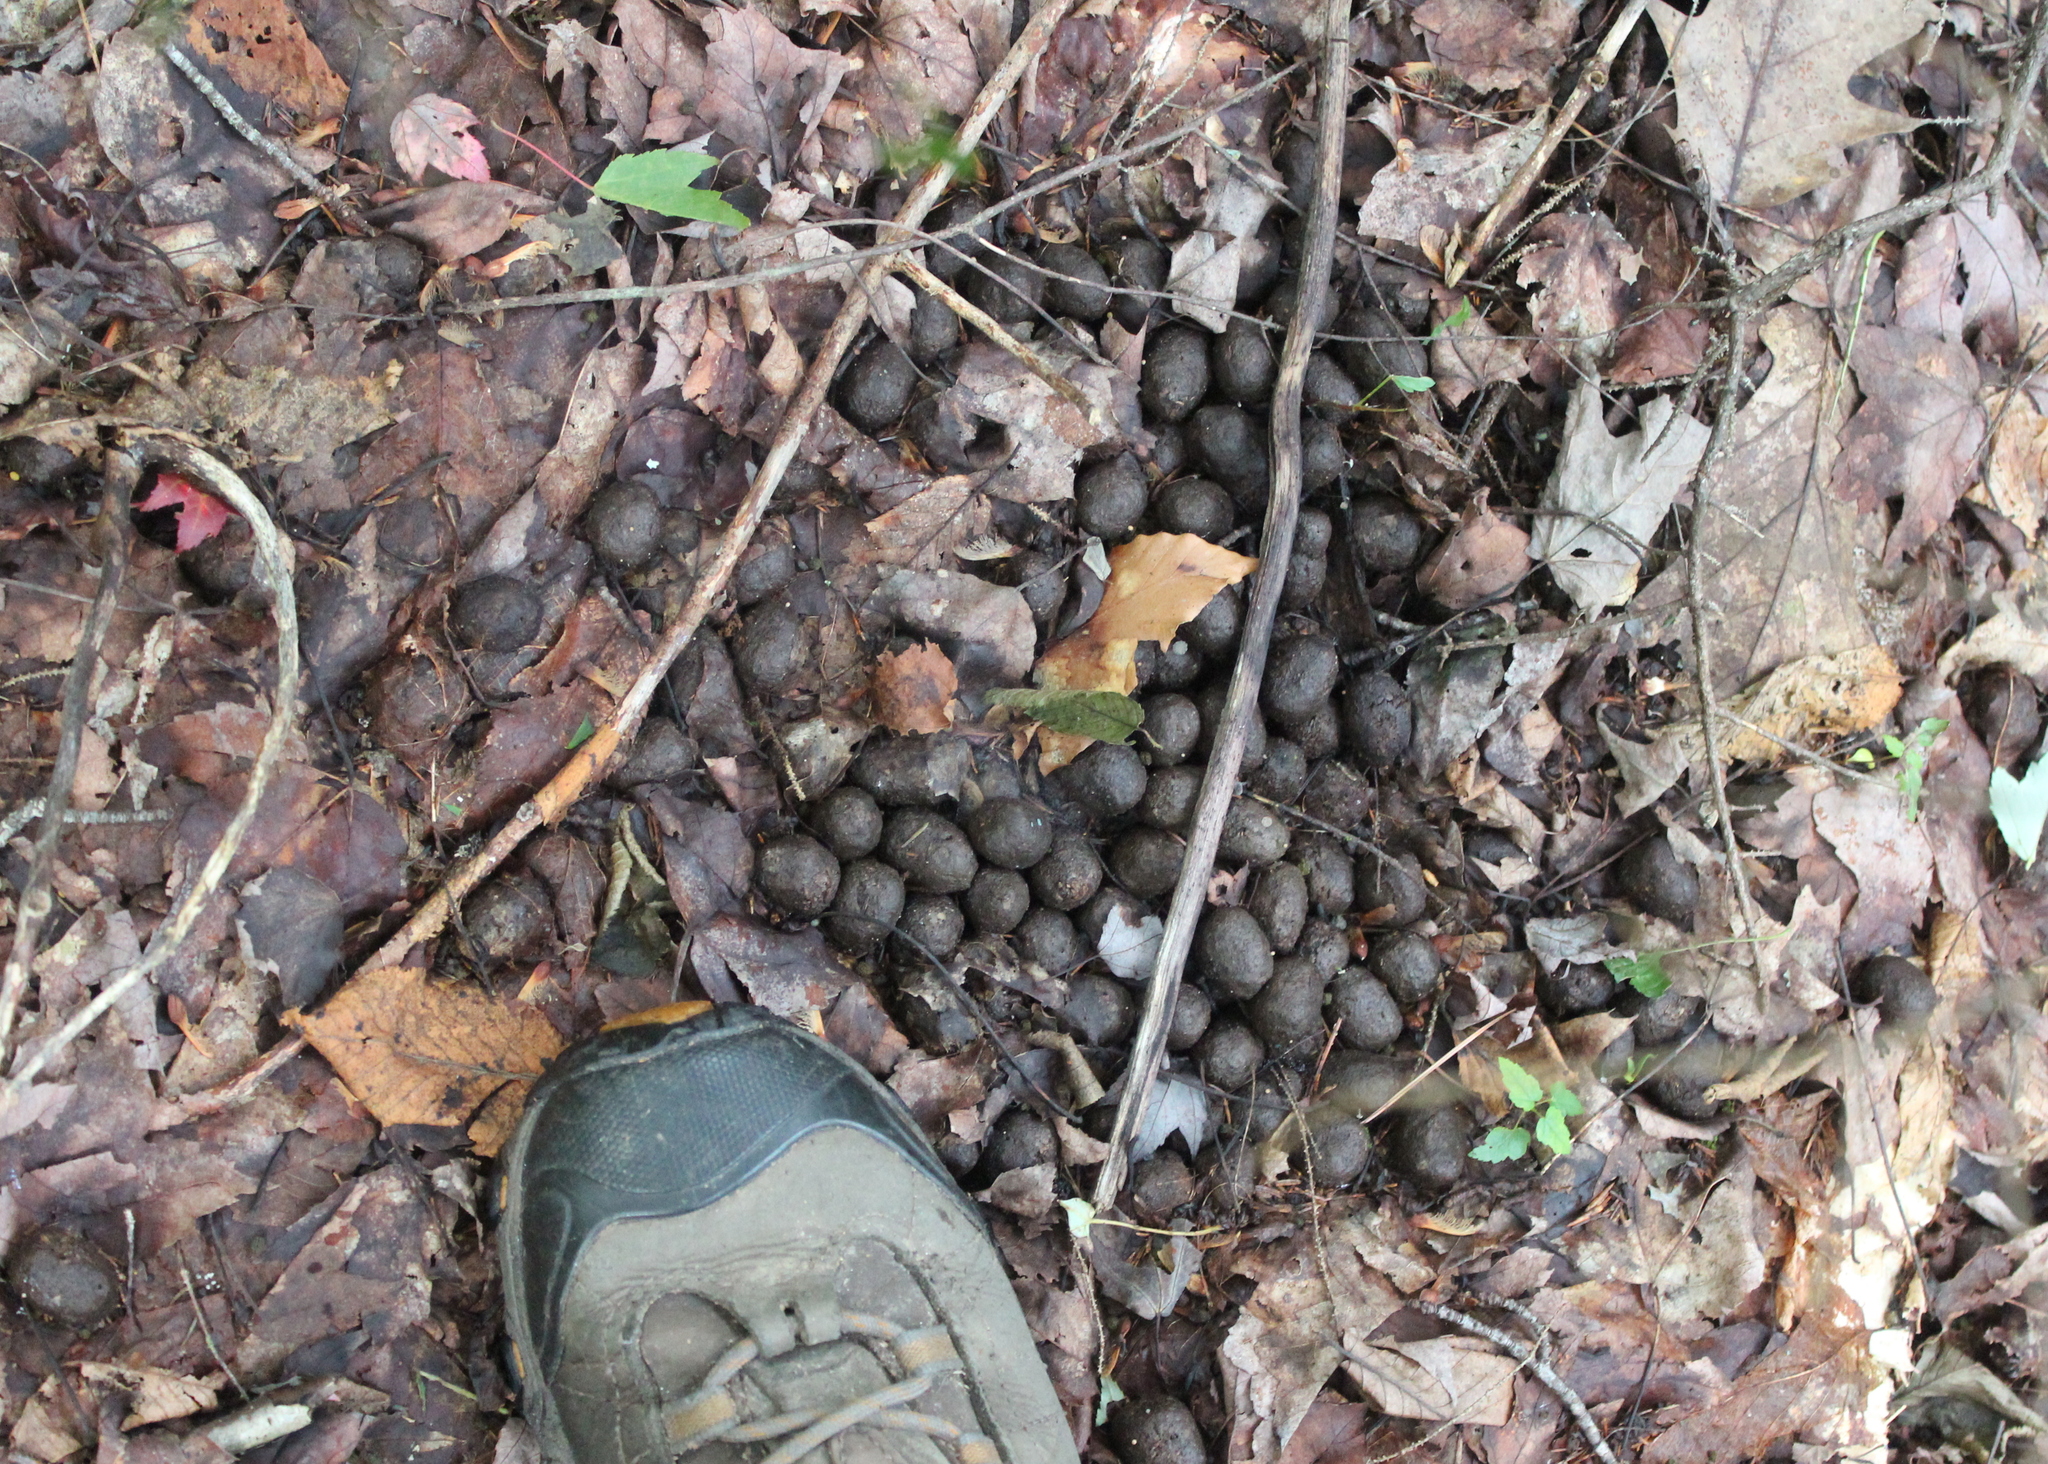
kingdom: Animalia
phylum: Chordata
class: Mammalia
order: Artiodactyla
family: Cervidae
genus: Alces
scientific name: Alces alces
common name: Moose
